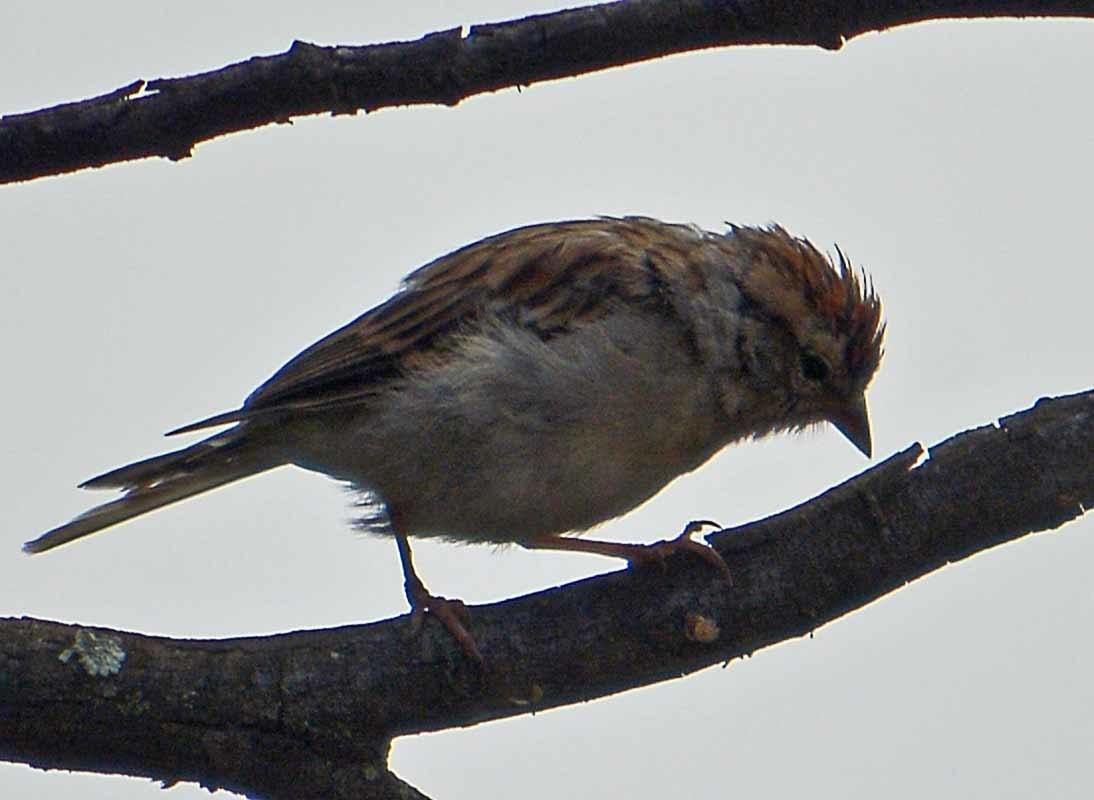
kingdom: Animalia
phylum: Chordata
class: Aves
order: Passeriformes
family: Passerellidae
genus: Spizella
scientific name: Spizella passerina
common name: Chipping sparrow
